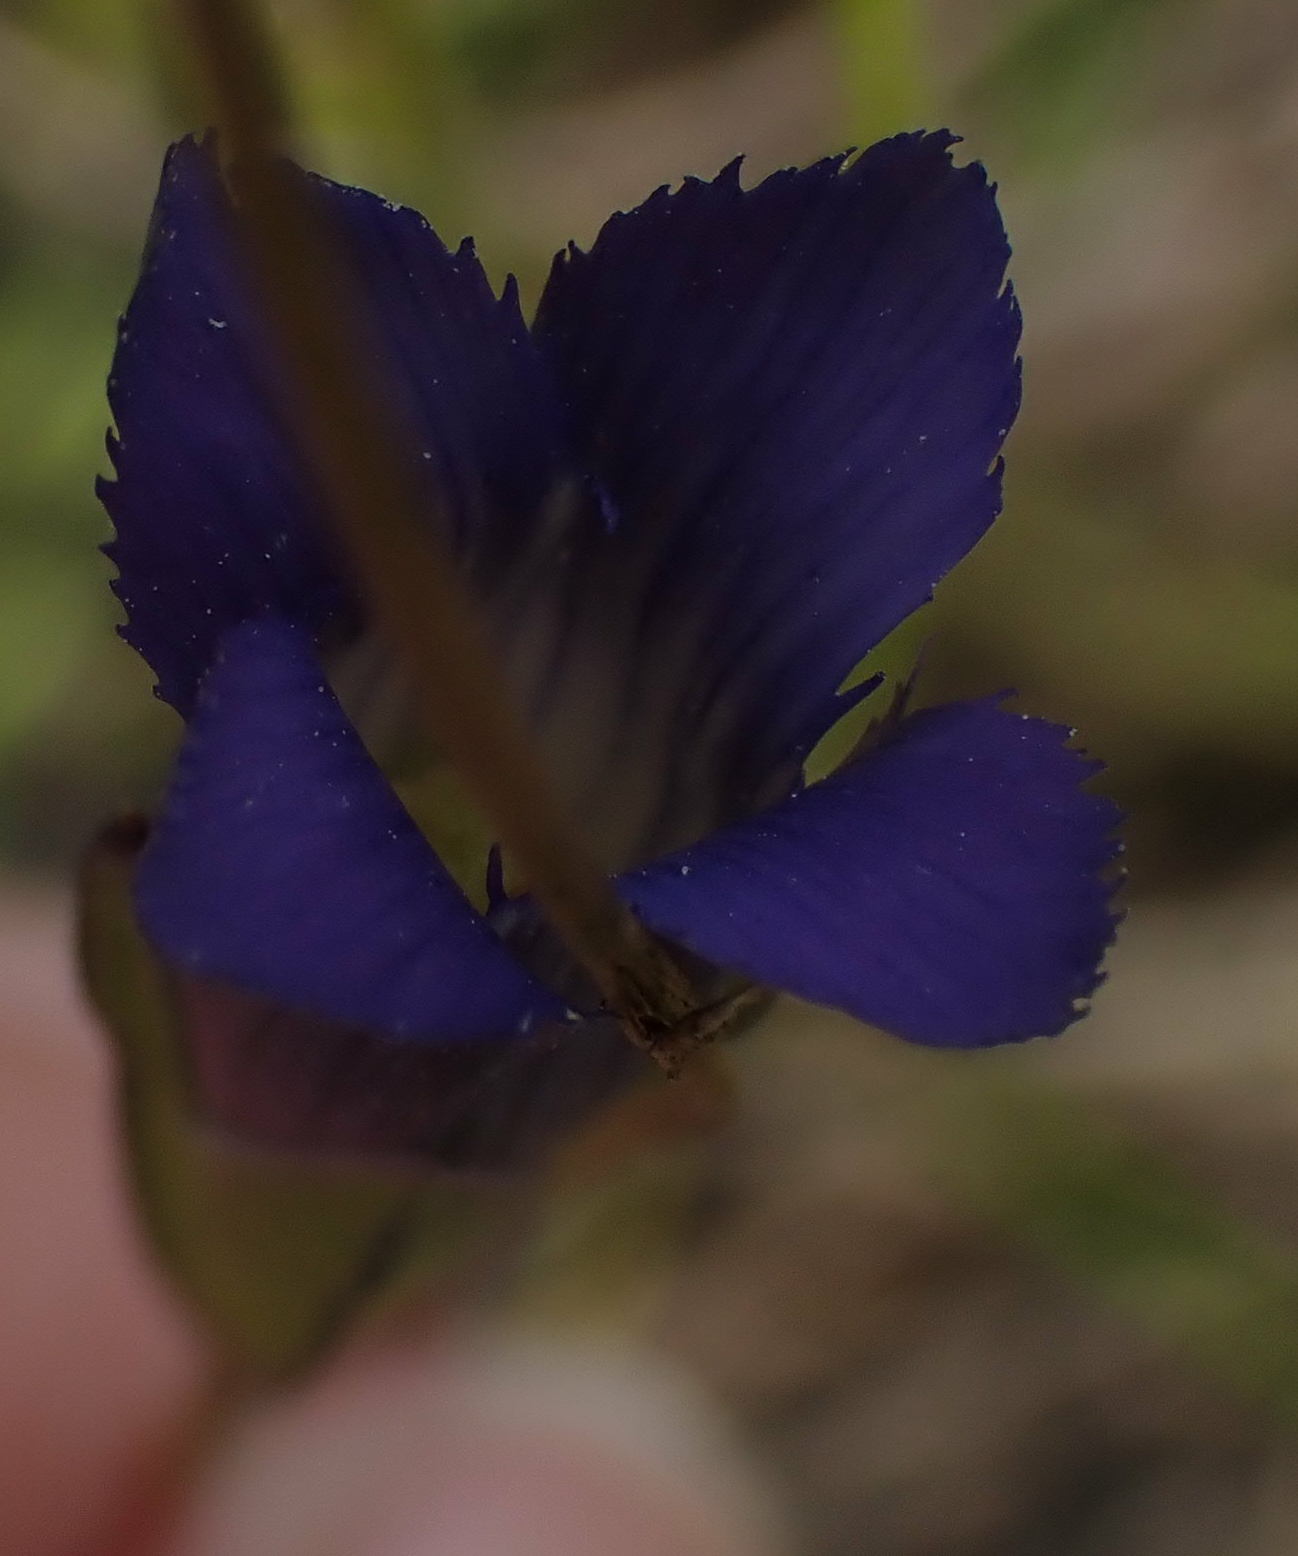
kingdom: Plantae
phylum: Tracheophyta
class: Magnoliopsida
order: Gentianales
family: Gentianaceae
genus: Gentianopsis
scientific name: Gentianopsis virgata
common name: Lesser fringed-gentian
